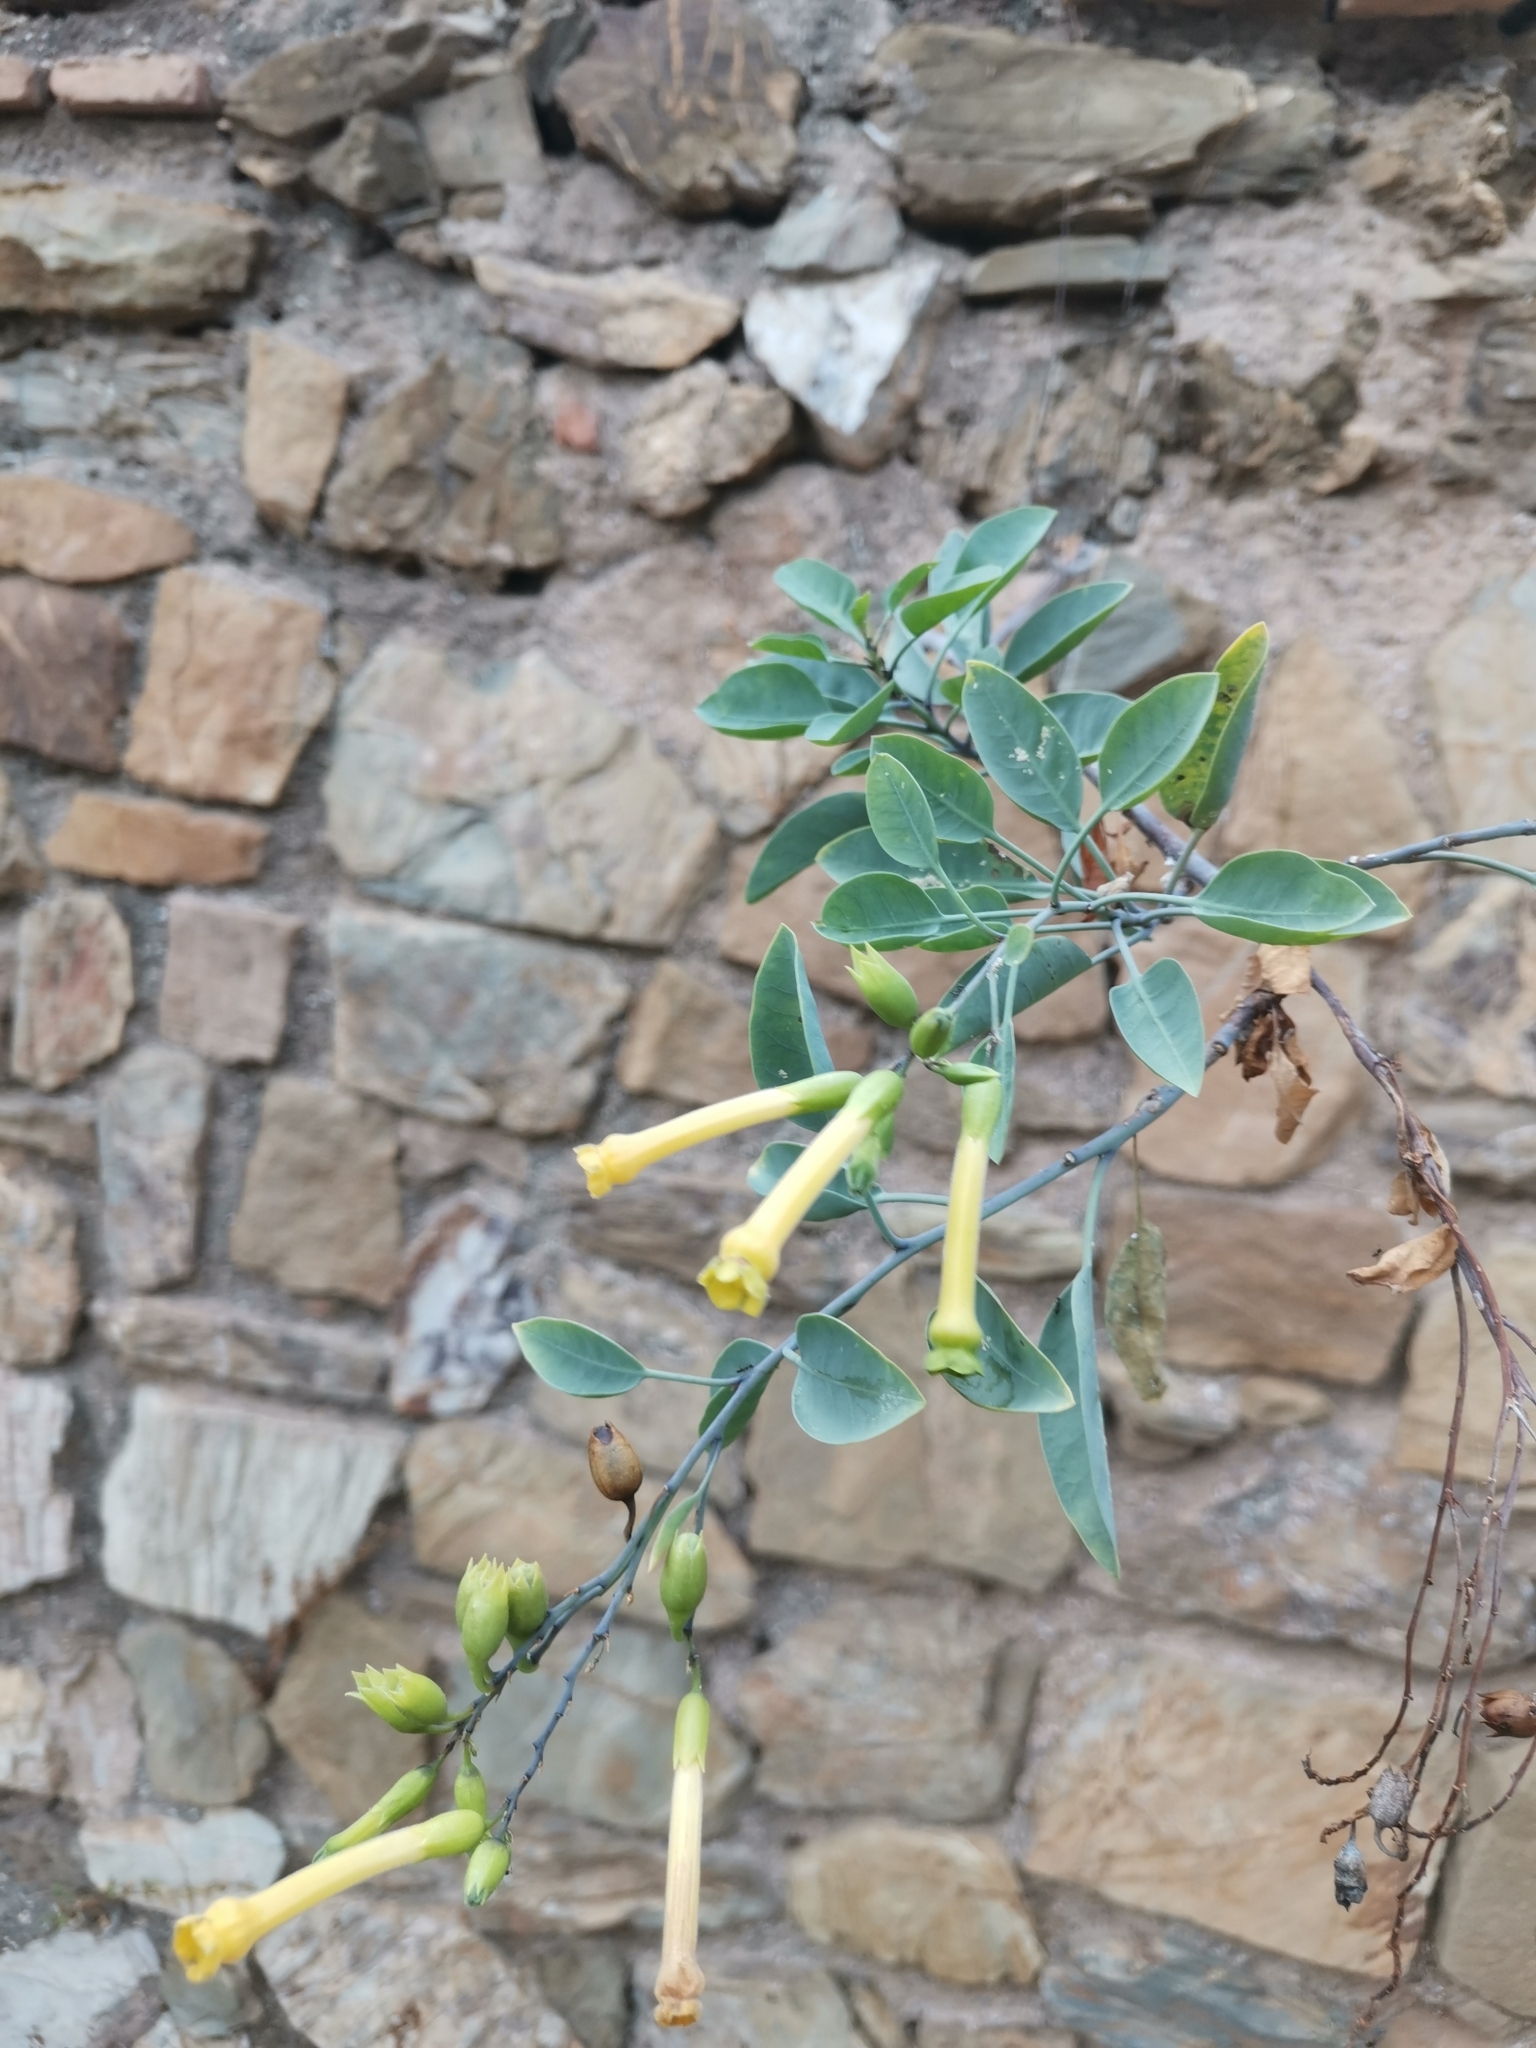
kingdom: Plantae
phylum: Tracheophyta
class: Magnoliopsida
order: Solanales
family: Solanaceae
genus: Nicotiana
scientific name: Nicotiana glauca
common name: Tree tobacco
